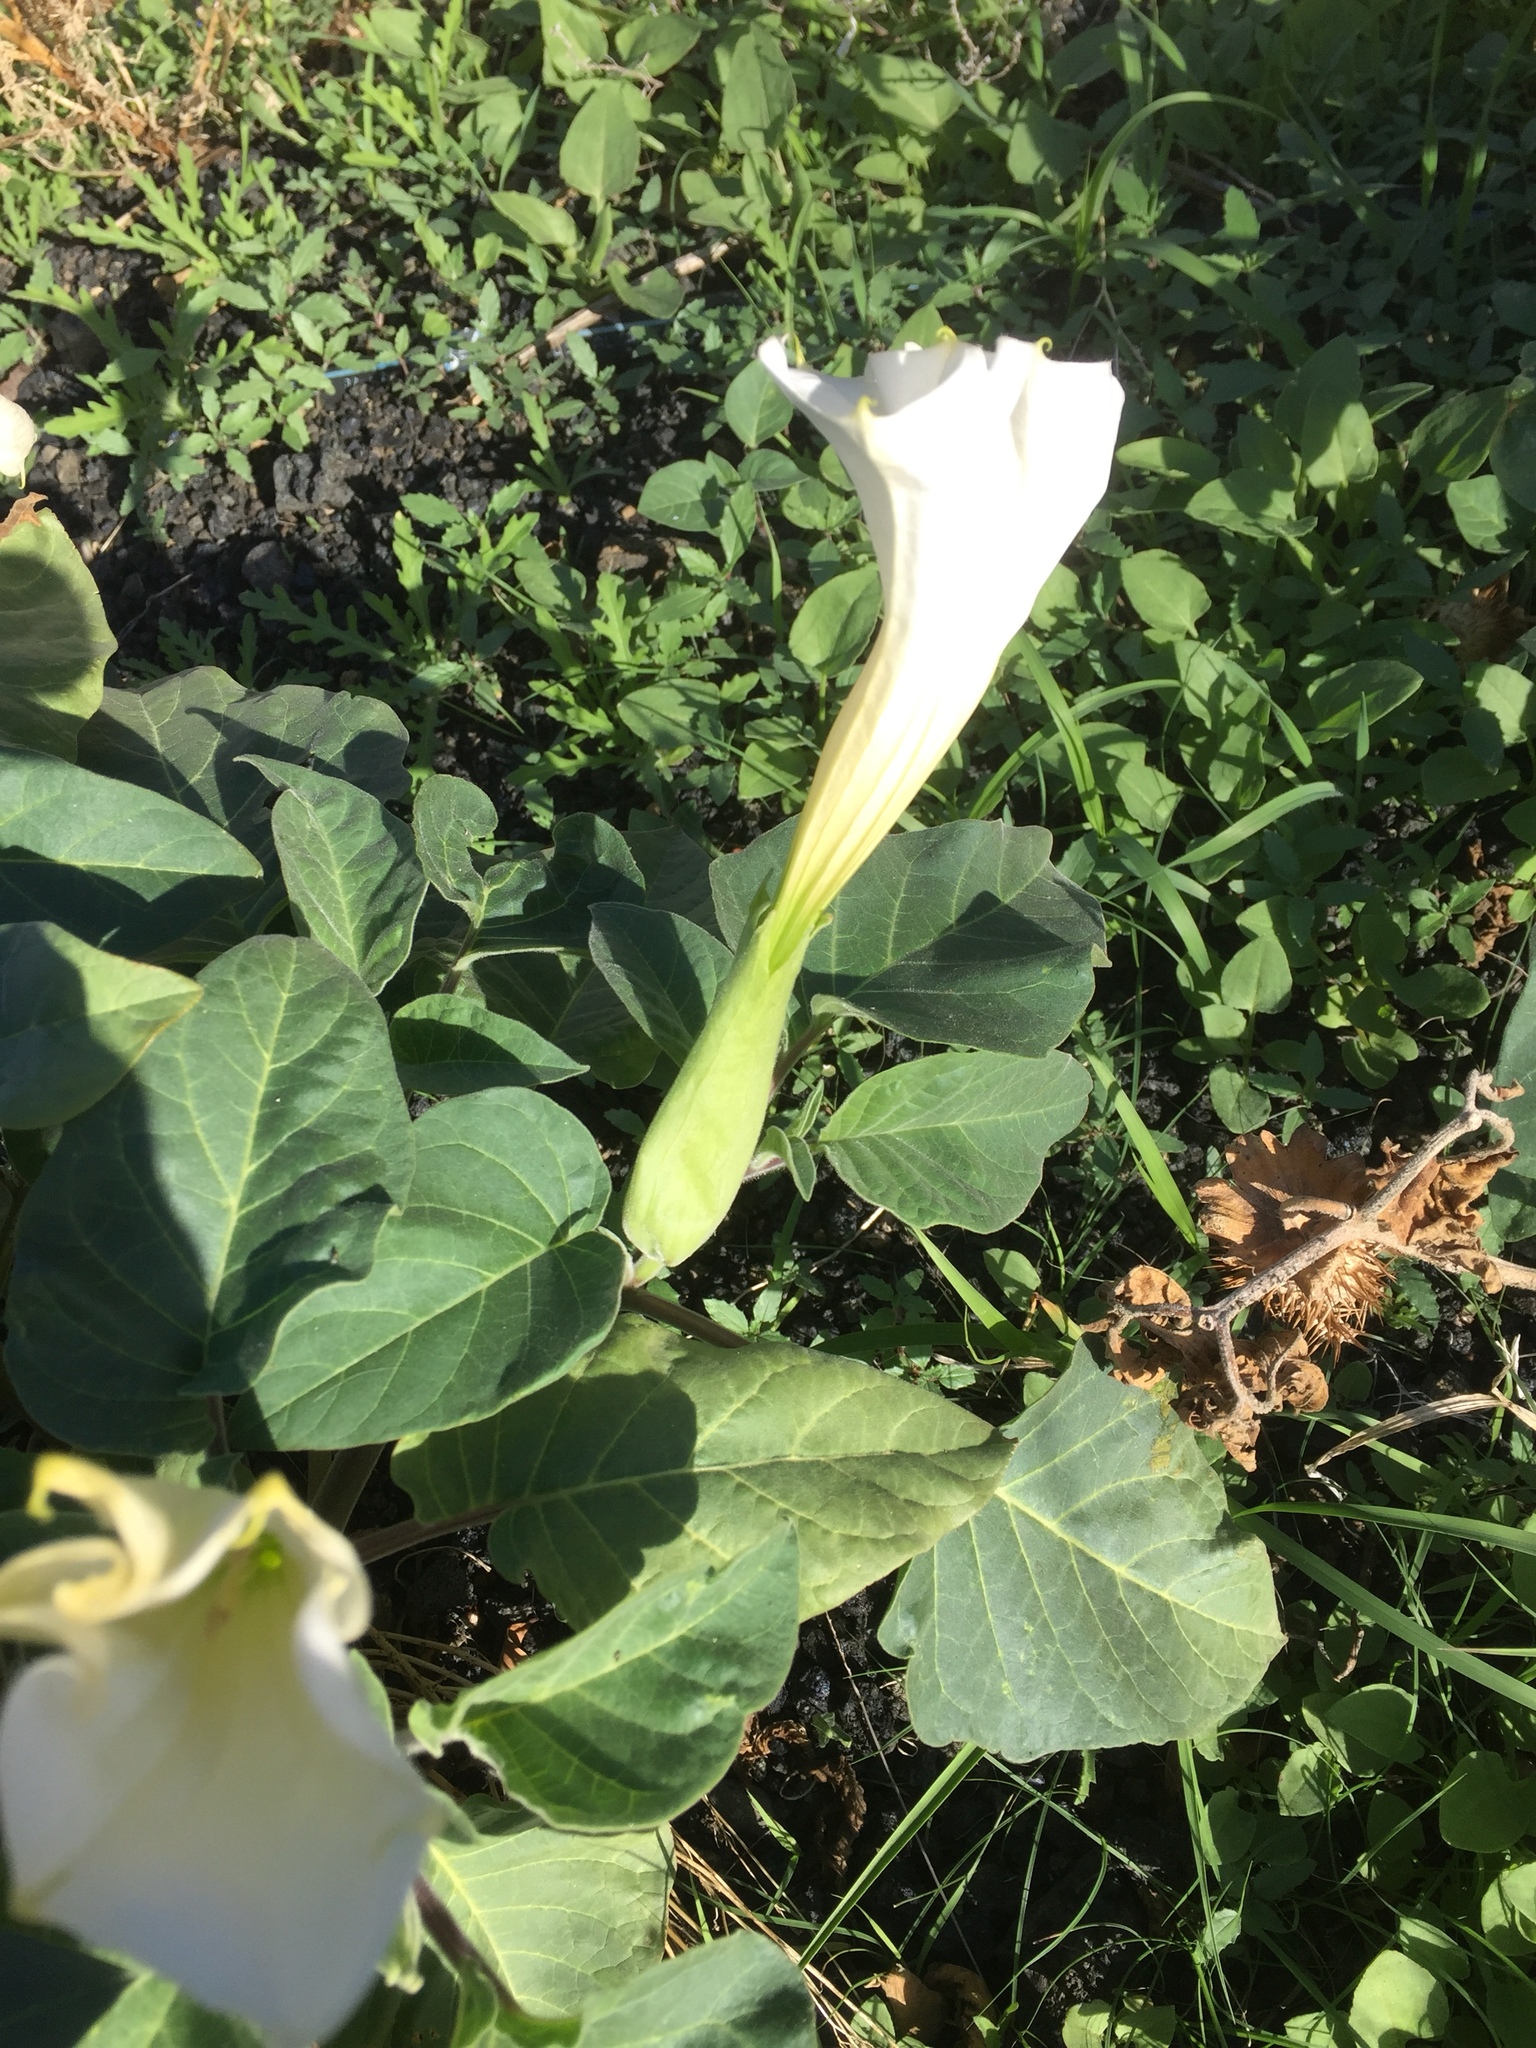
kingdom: Plantae
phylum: Tracheophyta
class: Magnoliopsida
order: Solanales
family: Solanaceae
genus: Datura
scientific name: Datura innoxia
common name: Downy thorn-apple
